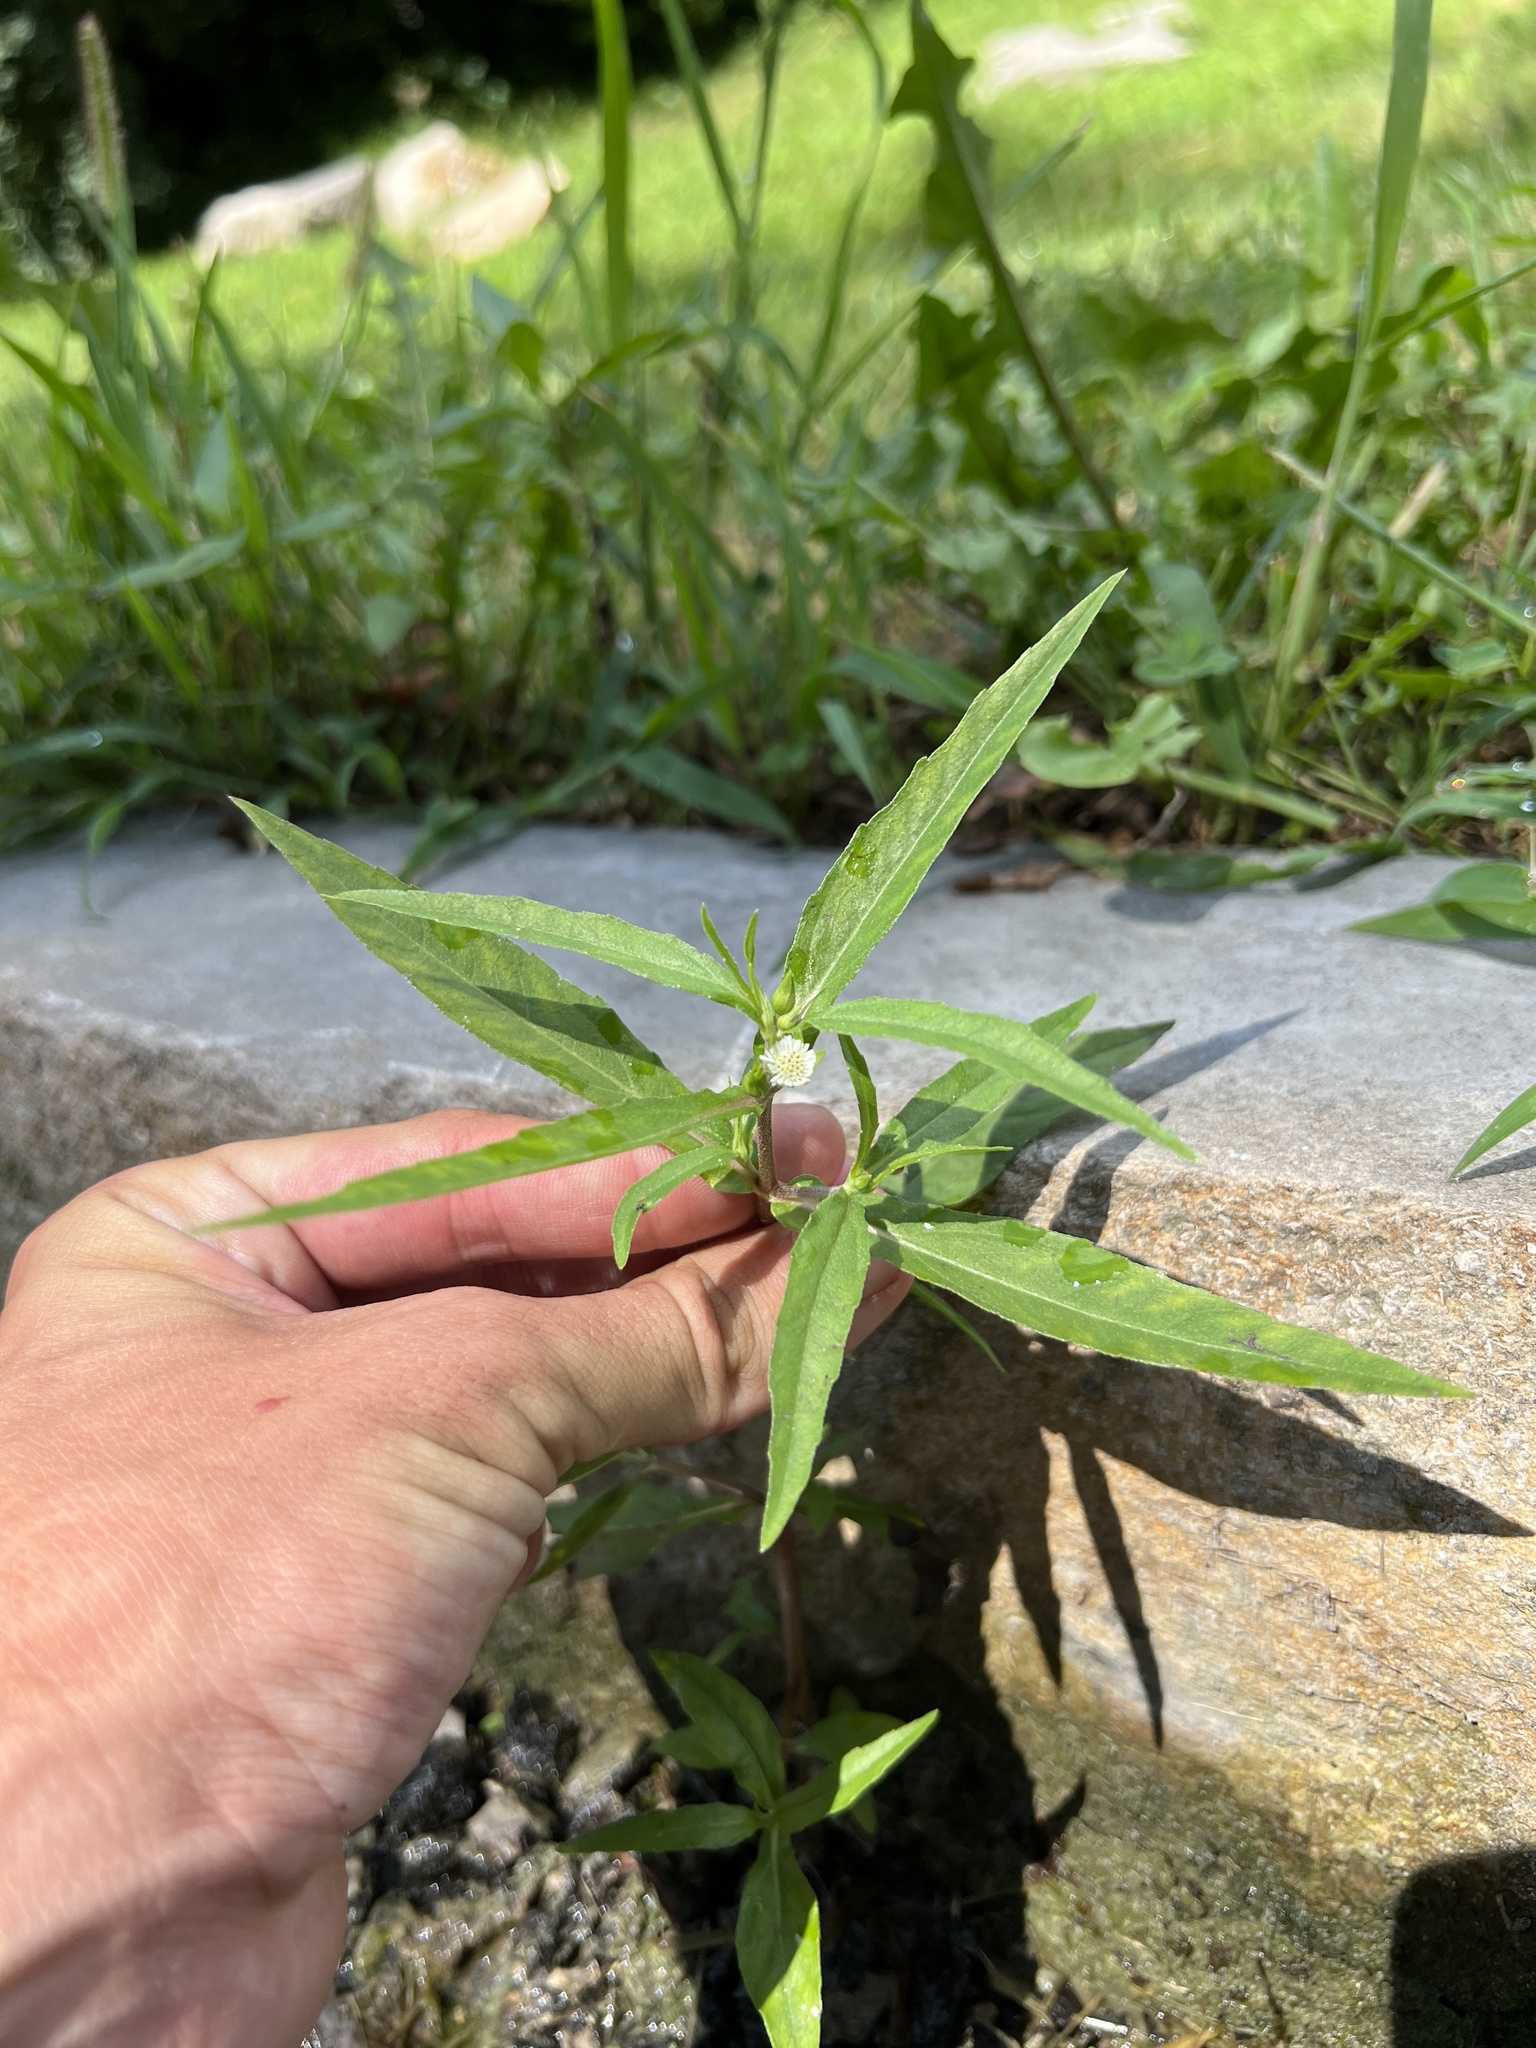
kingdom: Plantae
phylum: Tracheophyta
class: Magnoliopsida
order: Asterales
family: Asteraceae
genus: Eclipta
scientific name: Eclipta prostrata
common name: False daisy
